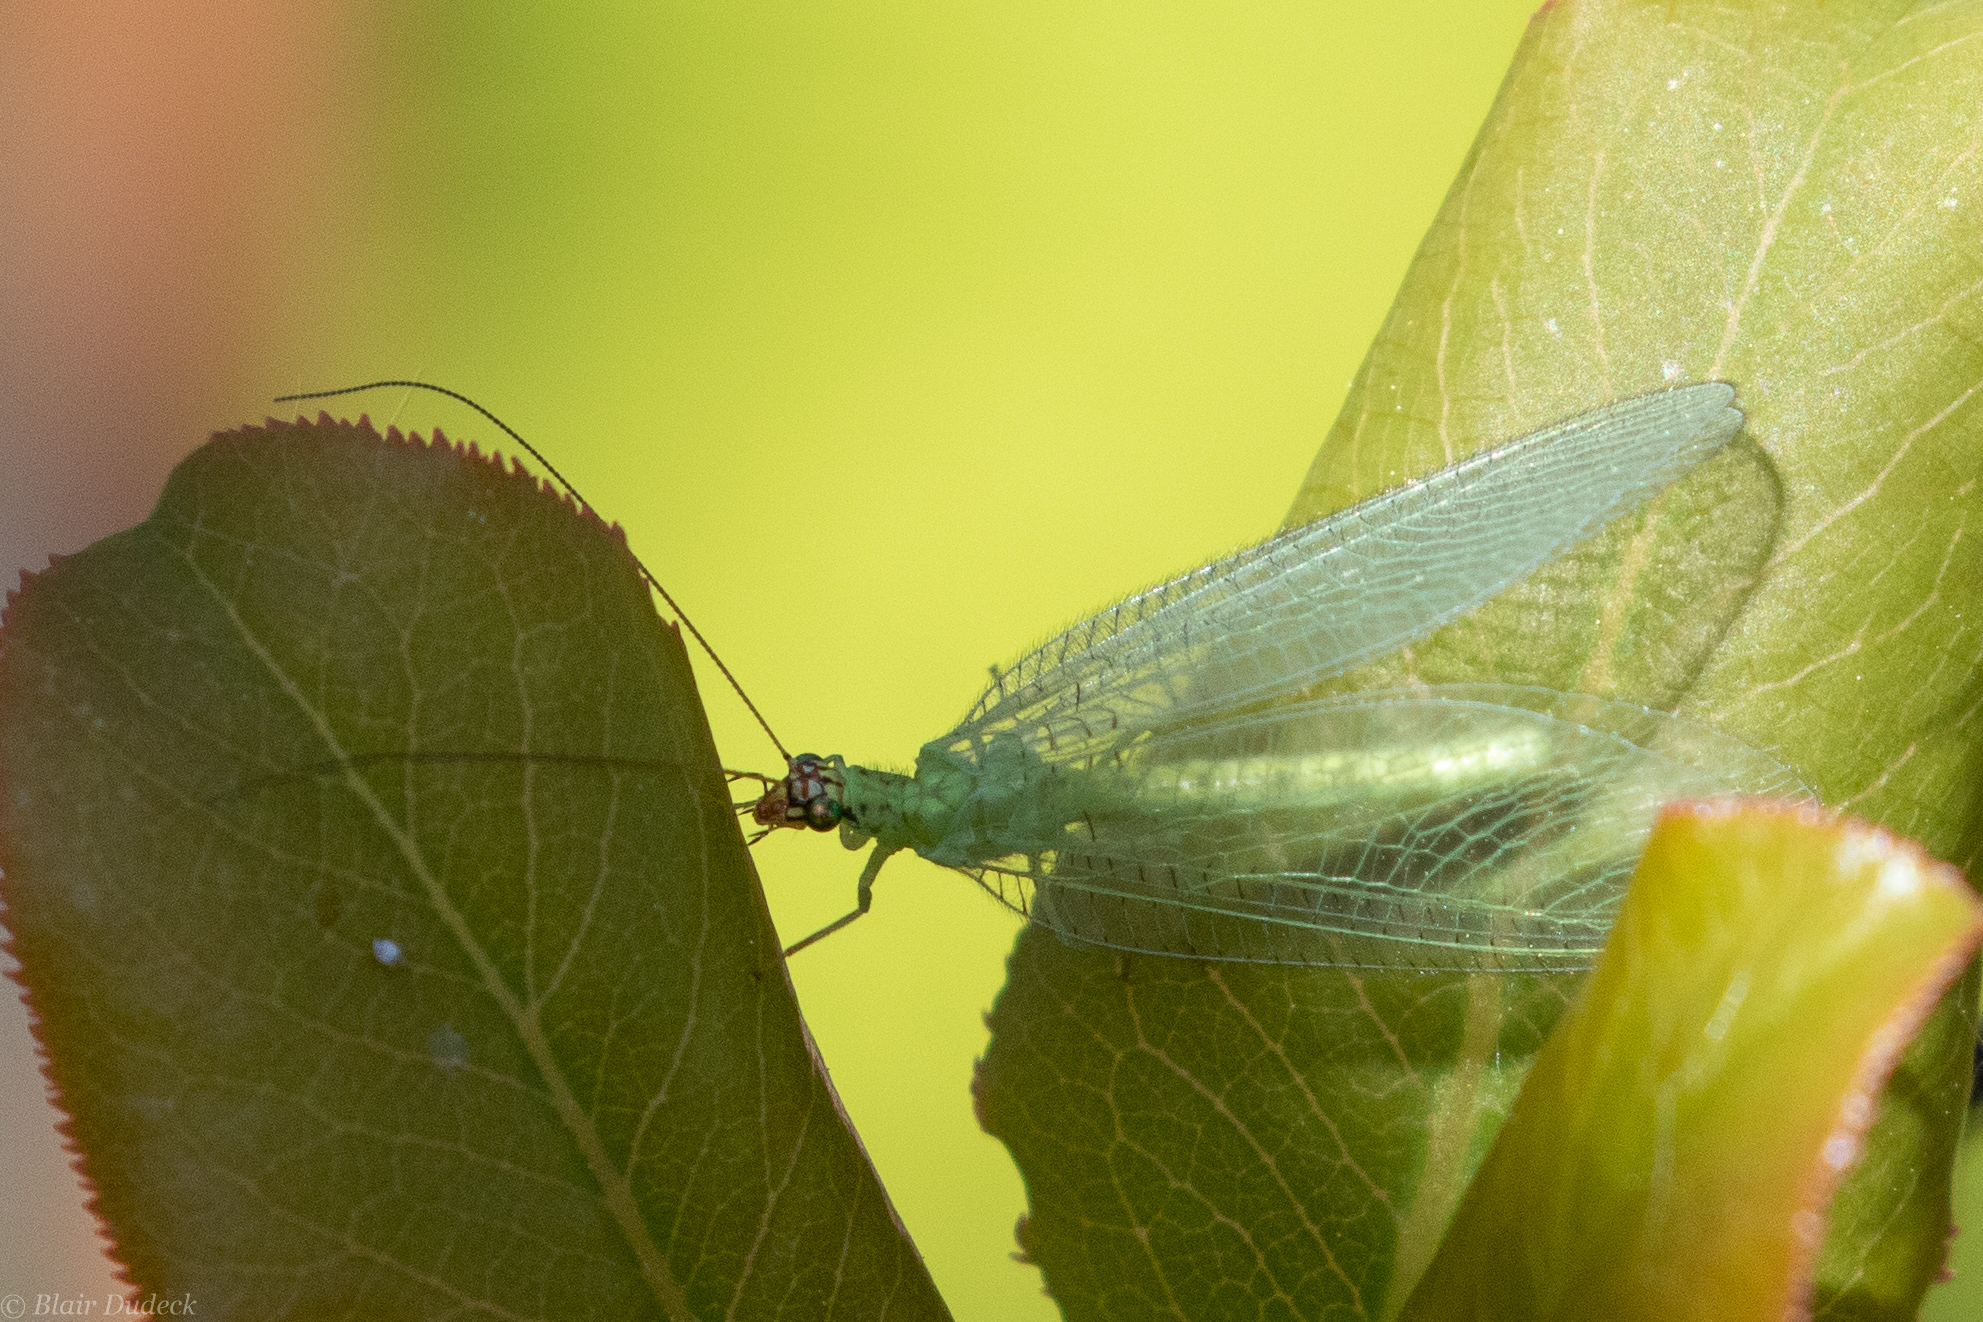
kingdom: Animalia
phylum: Arthropoda
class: Insecta
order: Neuroptera
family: Chrysopidae
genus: Chrysopa
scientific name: Chrysopa oculata
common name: Golden-eyed lacewing
